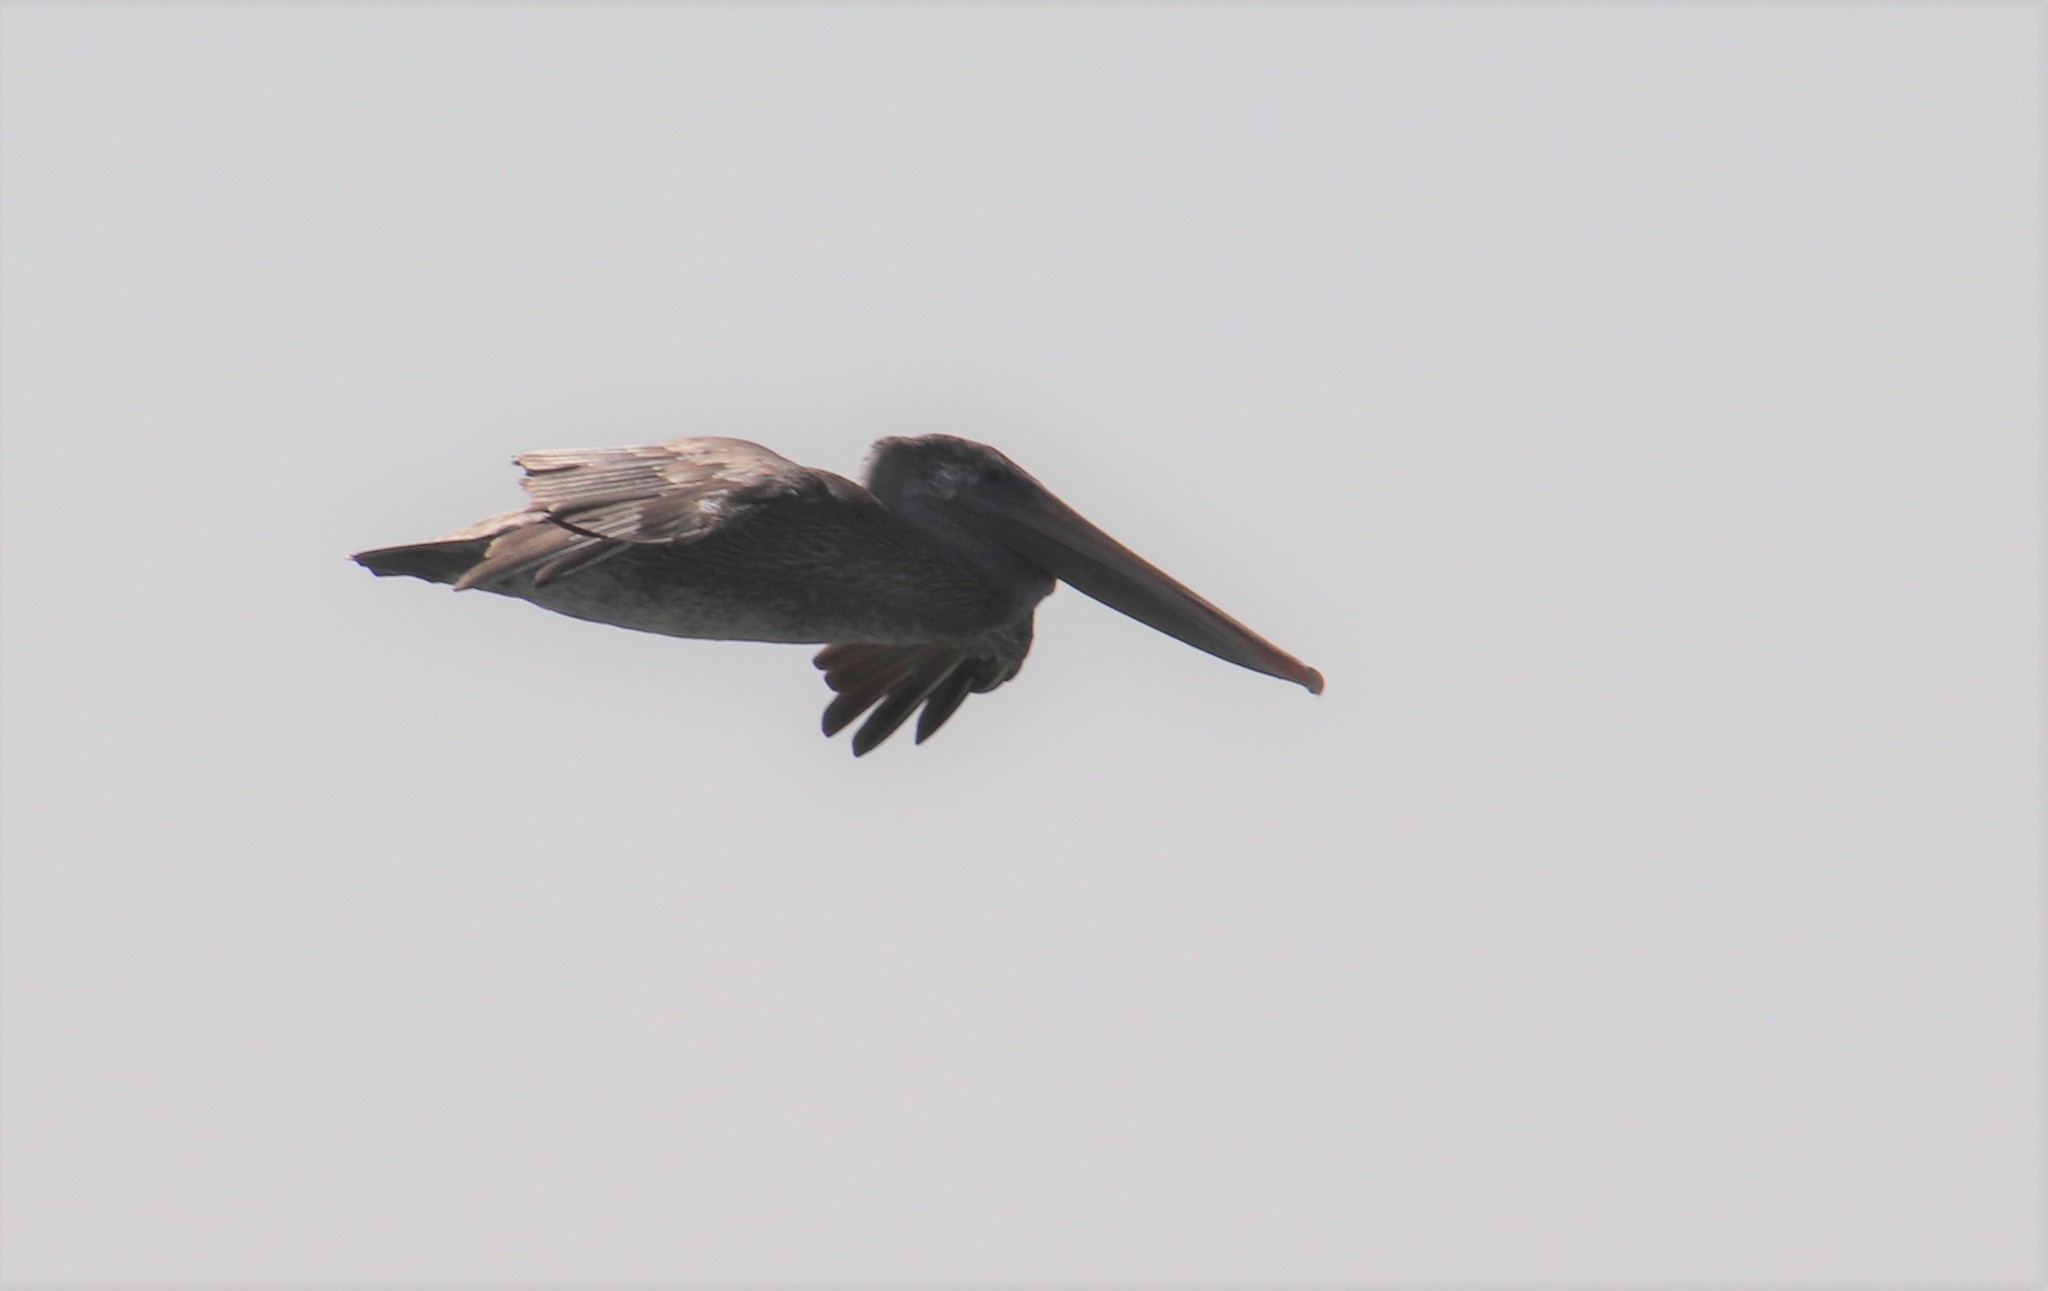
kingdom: Animalia
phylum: Chordata
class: Aves
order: Pelecaniformes
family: Pelecanidae
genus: Pelecanus
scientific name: Pelecanus occidentalis
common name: Brown pelican
